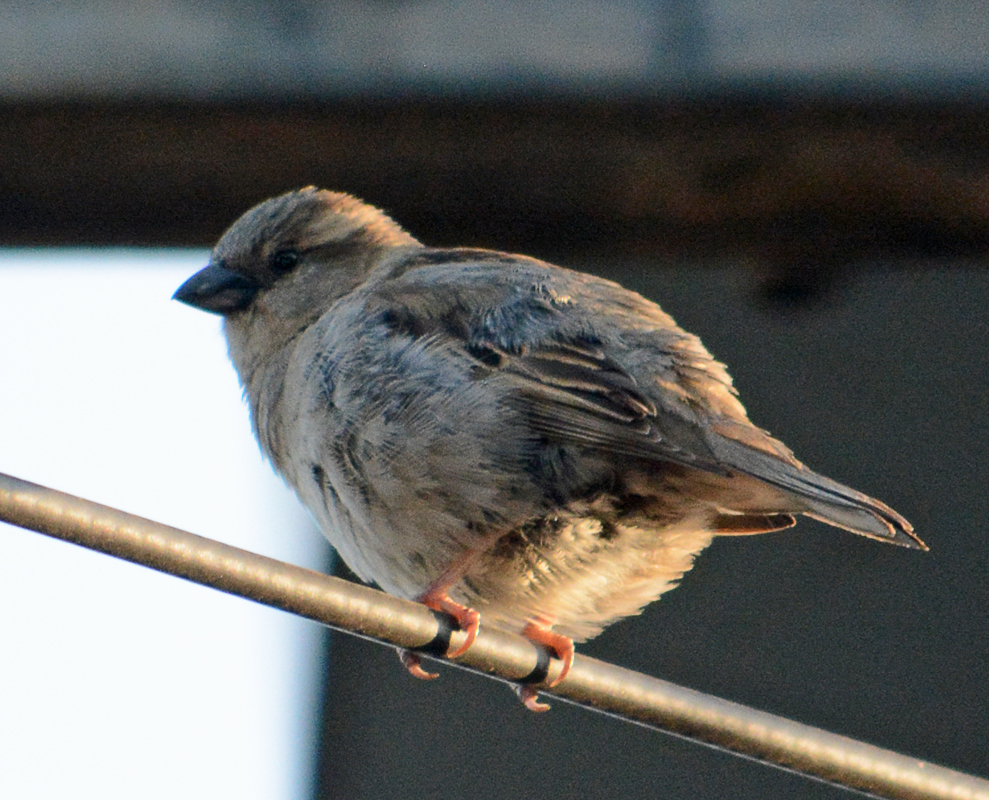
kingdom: Animalia
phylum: Chordata
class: Aves
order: Passeriformes
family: Passeridae
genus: Passer
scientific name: Passer domesticus
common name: House sparrow
